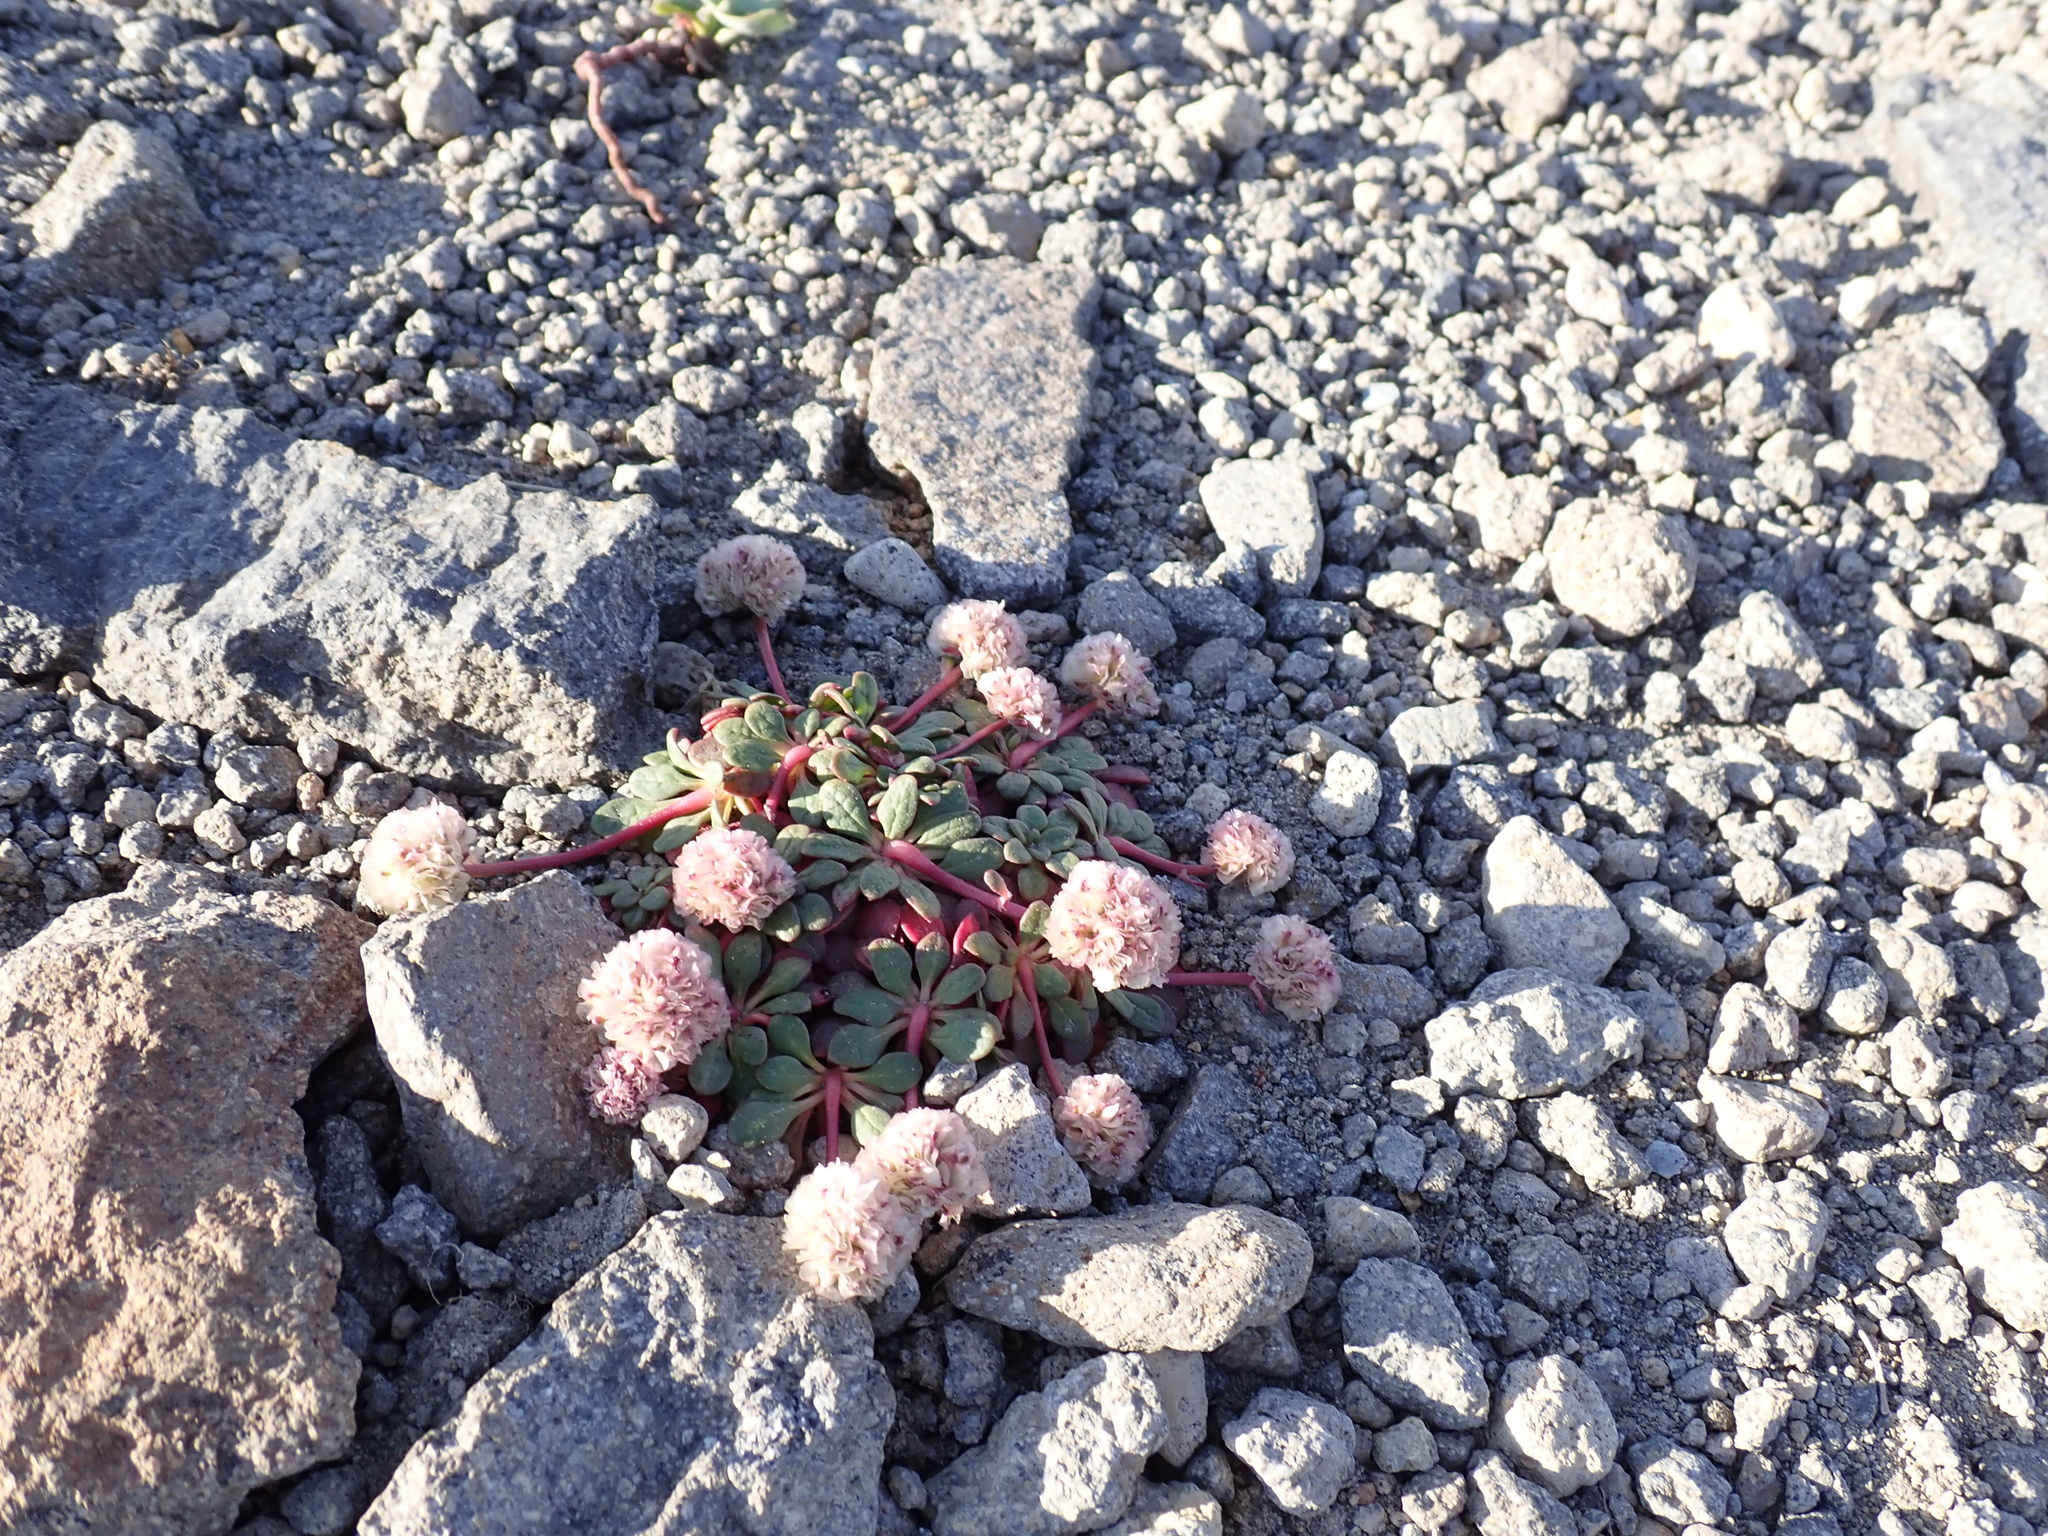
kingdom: Plantae
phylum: Tracheophyta
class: Magnoliopsida
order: Caryophyllales
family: Montiaceae
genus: Calyptridium
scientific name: Calyptridium umbellatum
